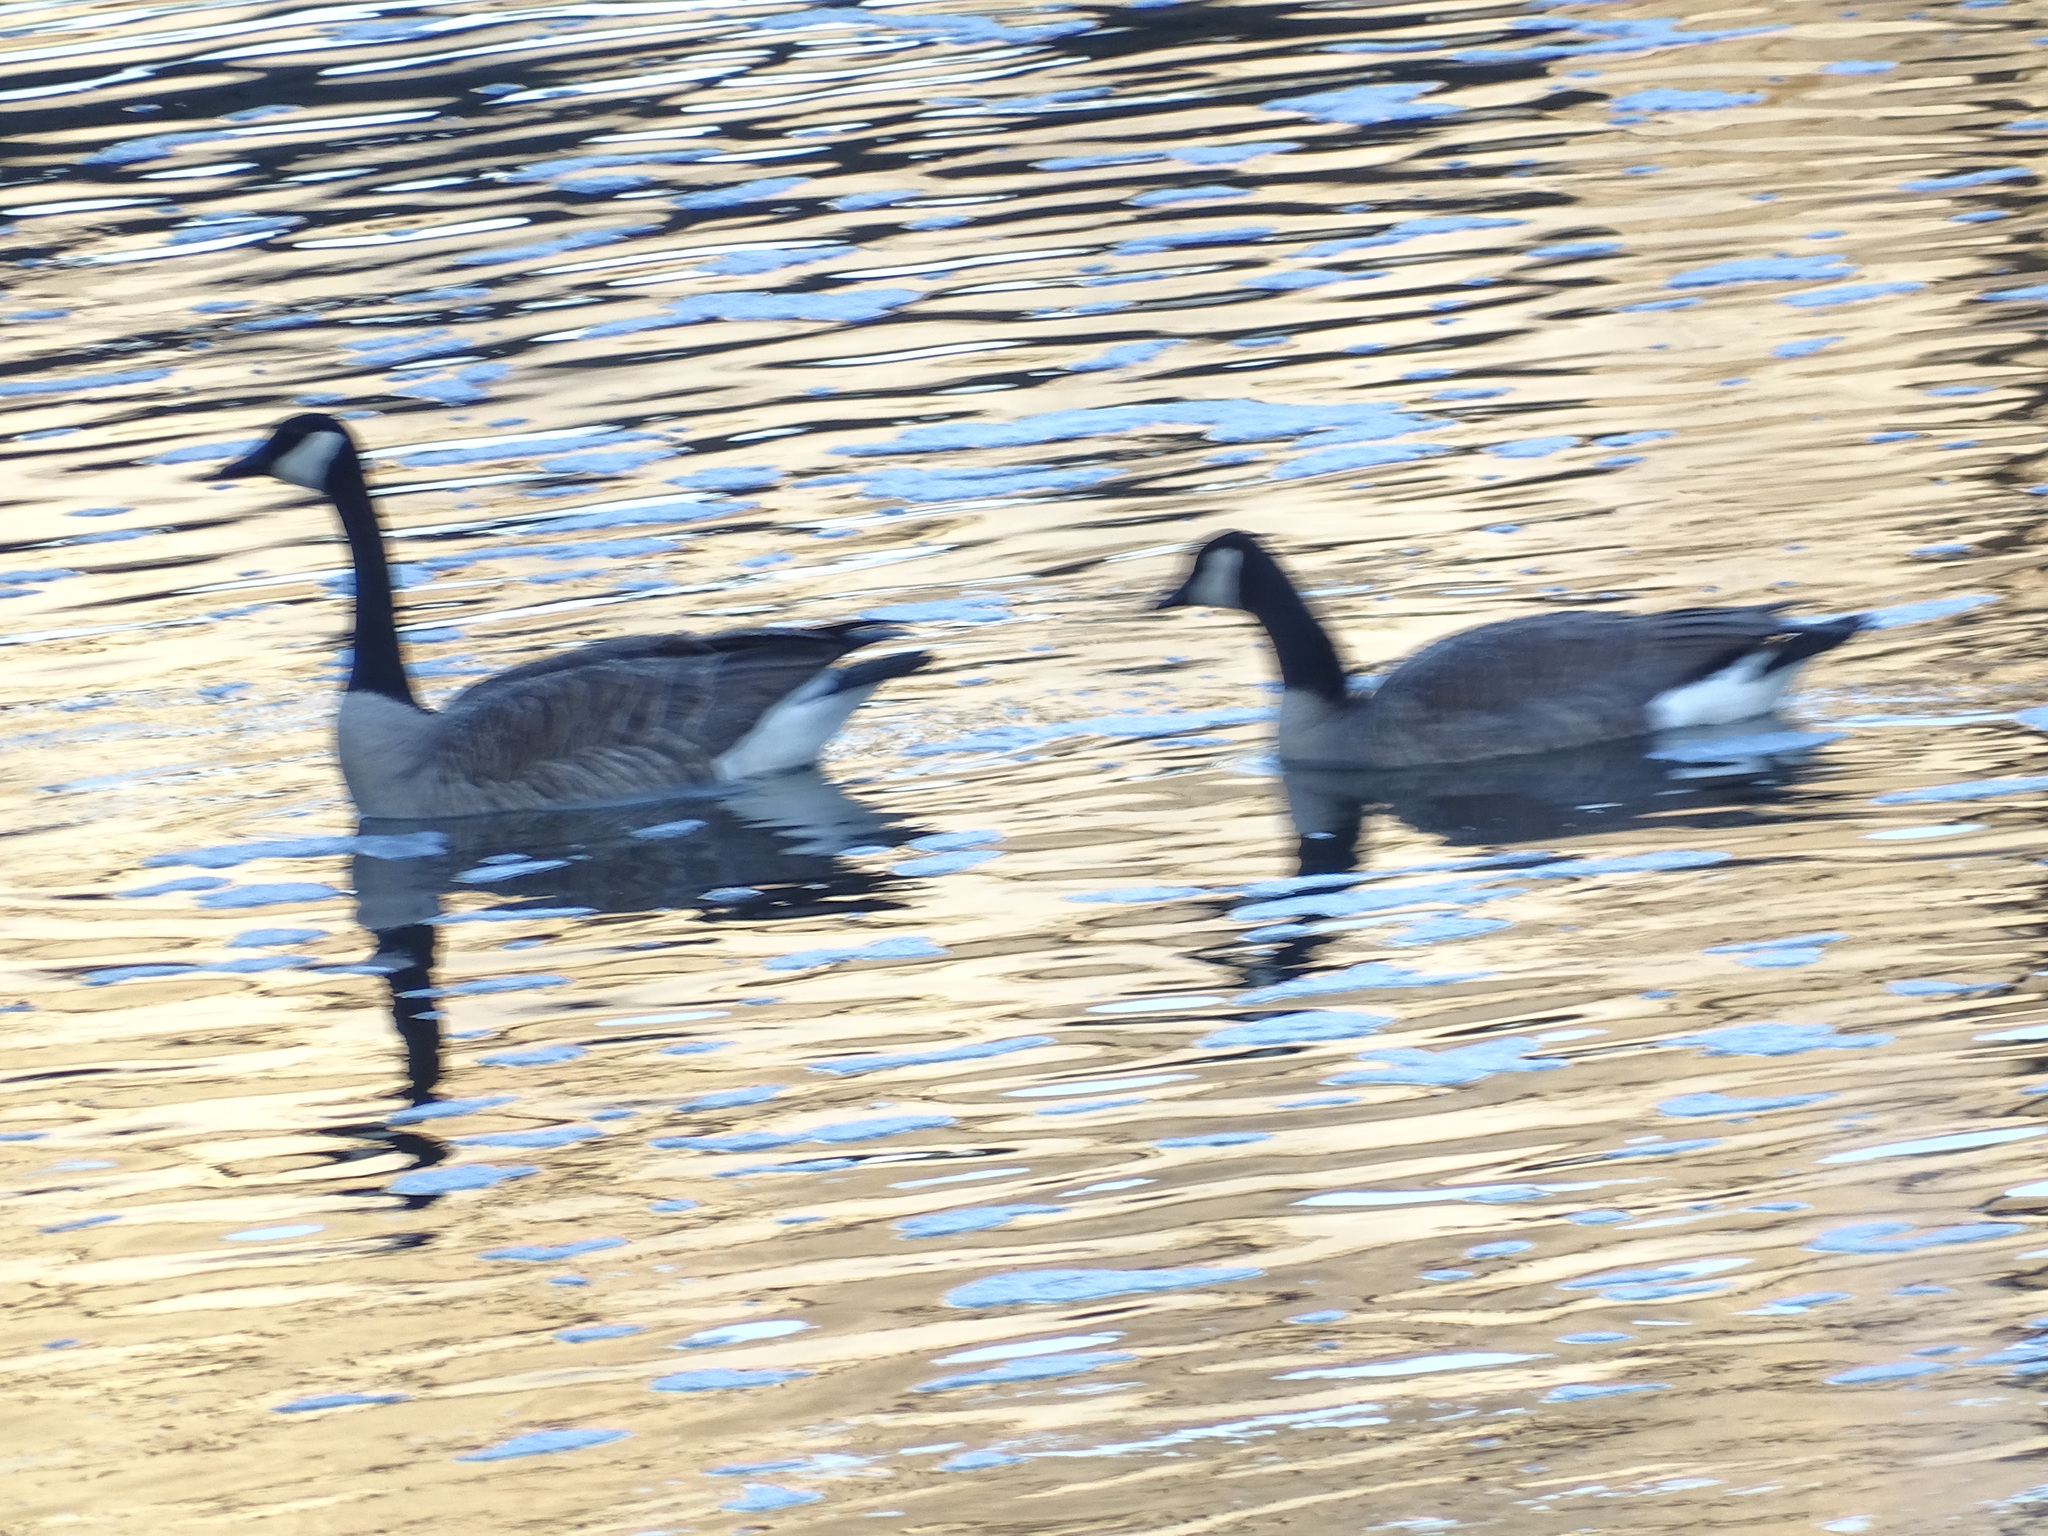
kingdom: Animalia
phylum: Chordata
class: Aves
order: Anseriformes
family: Anatidae
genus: Branta
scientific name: Branta canadensis
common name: Canada goose
